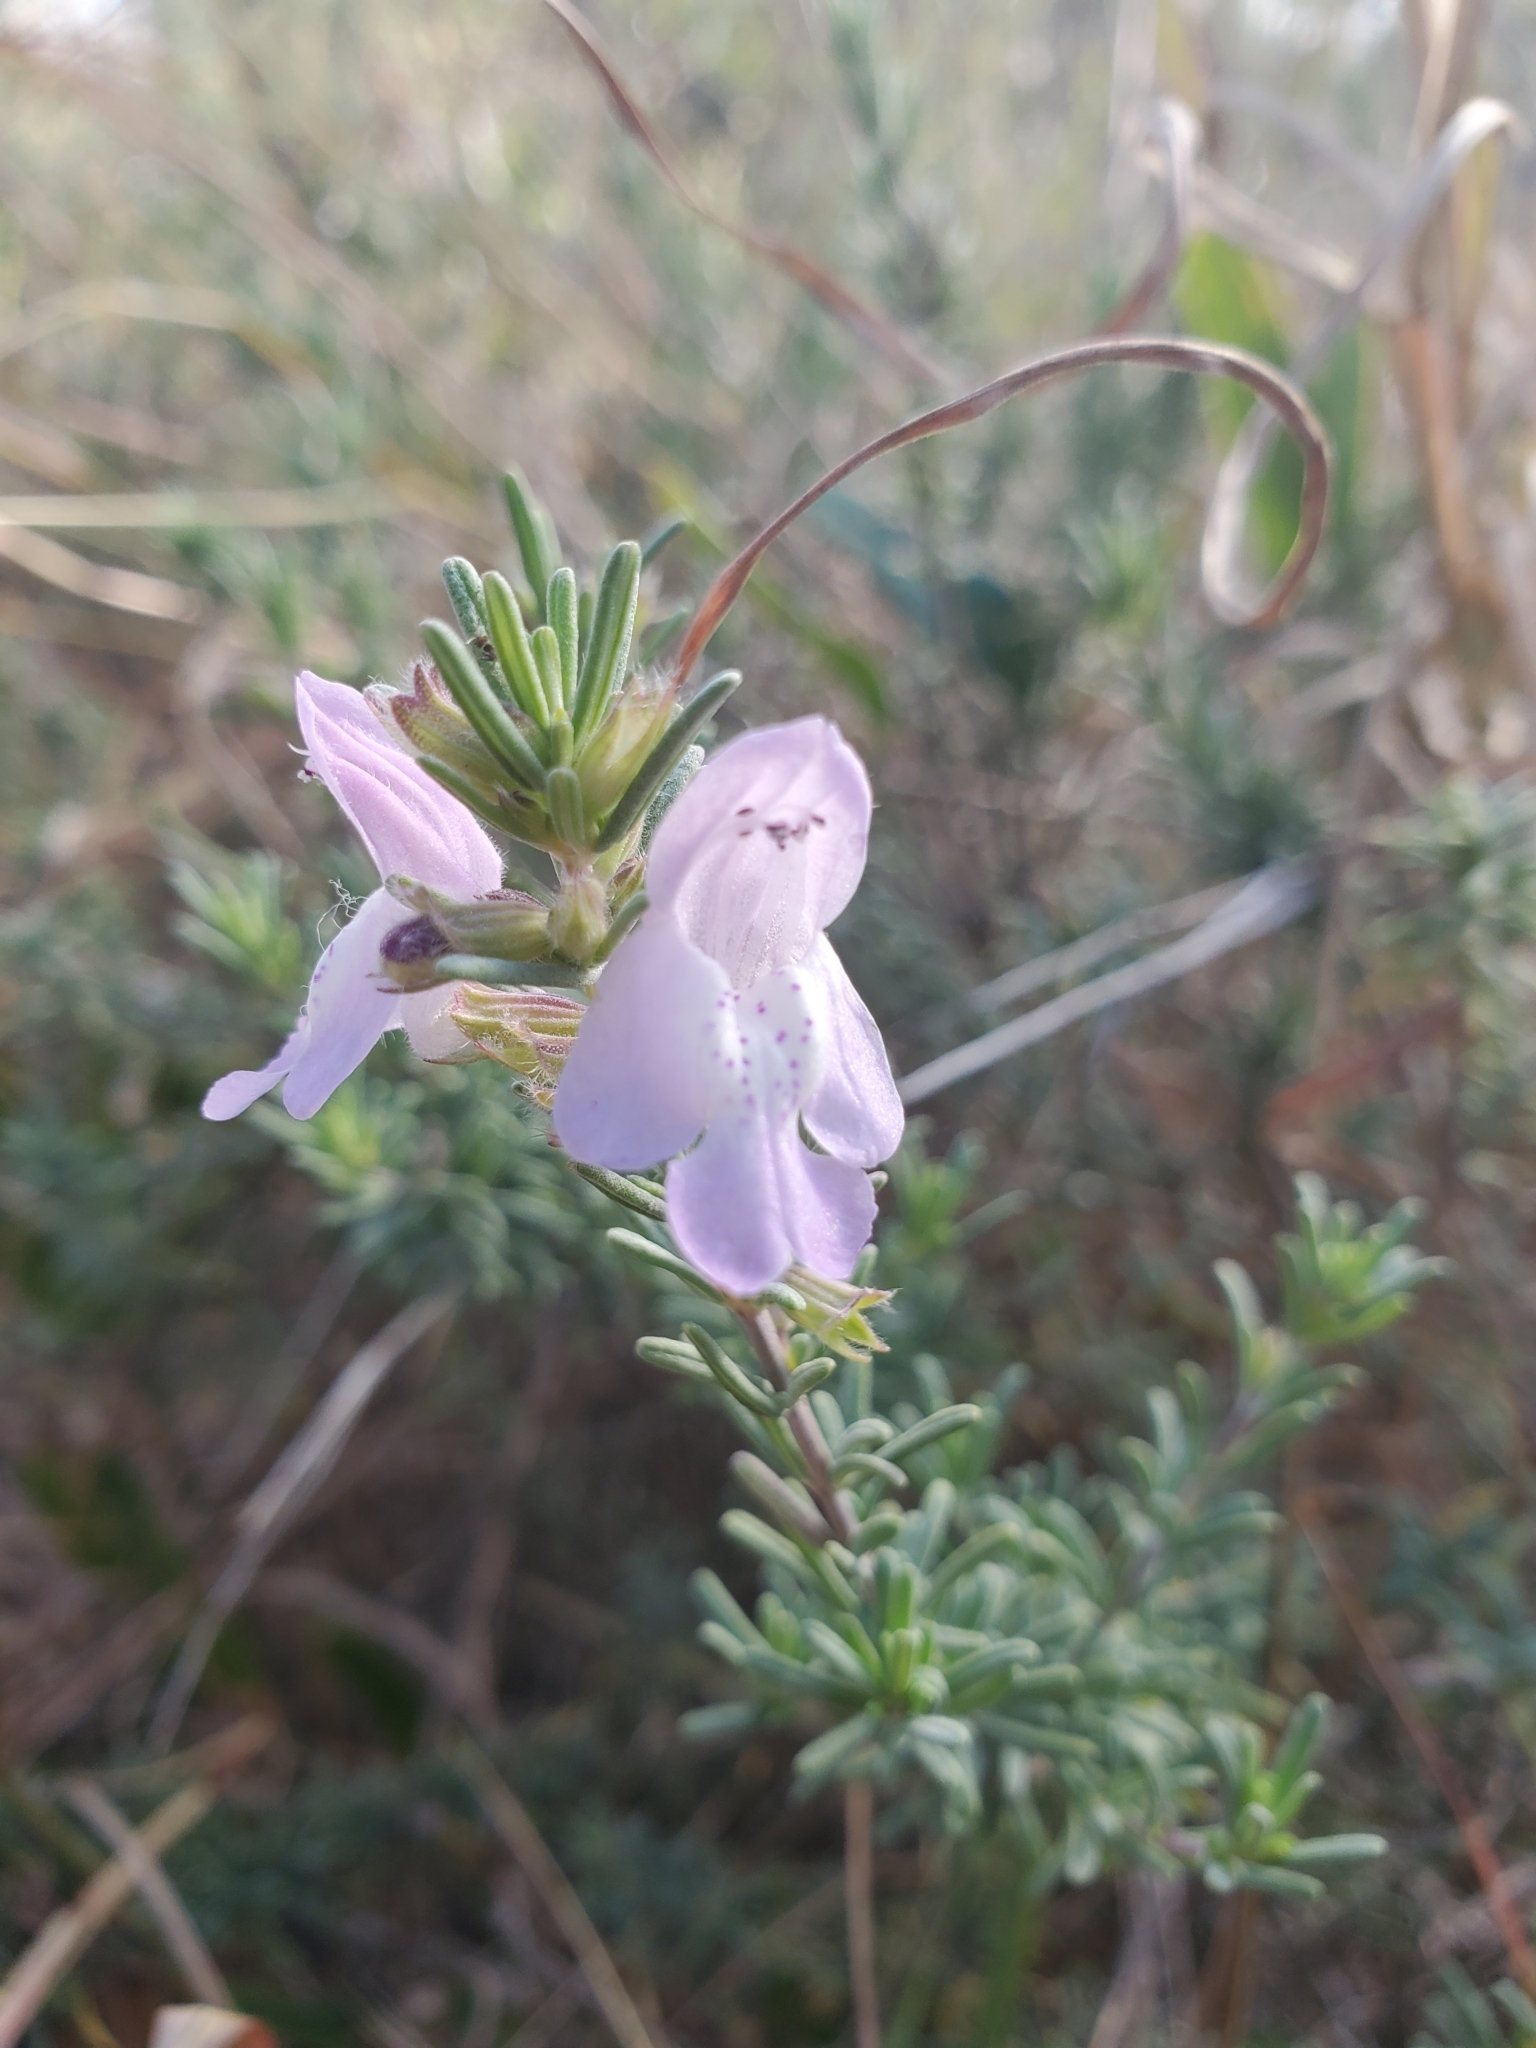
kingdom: Plantae
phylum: Tracheophyta
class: Magnoliopsida
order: Lamiales
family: Lamiaceae
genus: Conradina
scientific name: Conradina canescens
